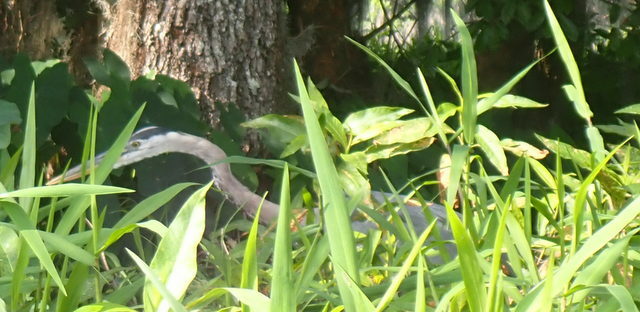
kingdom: Animalia
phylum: Chordata
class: Aves
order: Pelecaniformes
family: Ardeidae
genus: Ardea
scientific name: Ardea herodias
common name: Great blue heron
